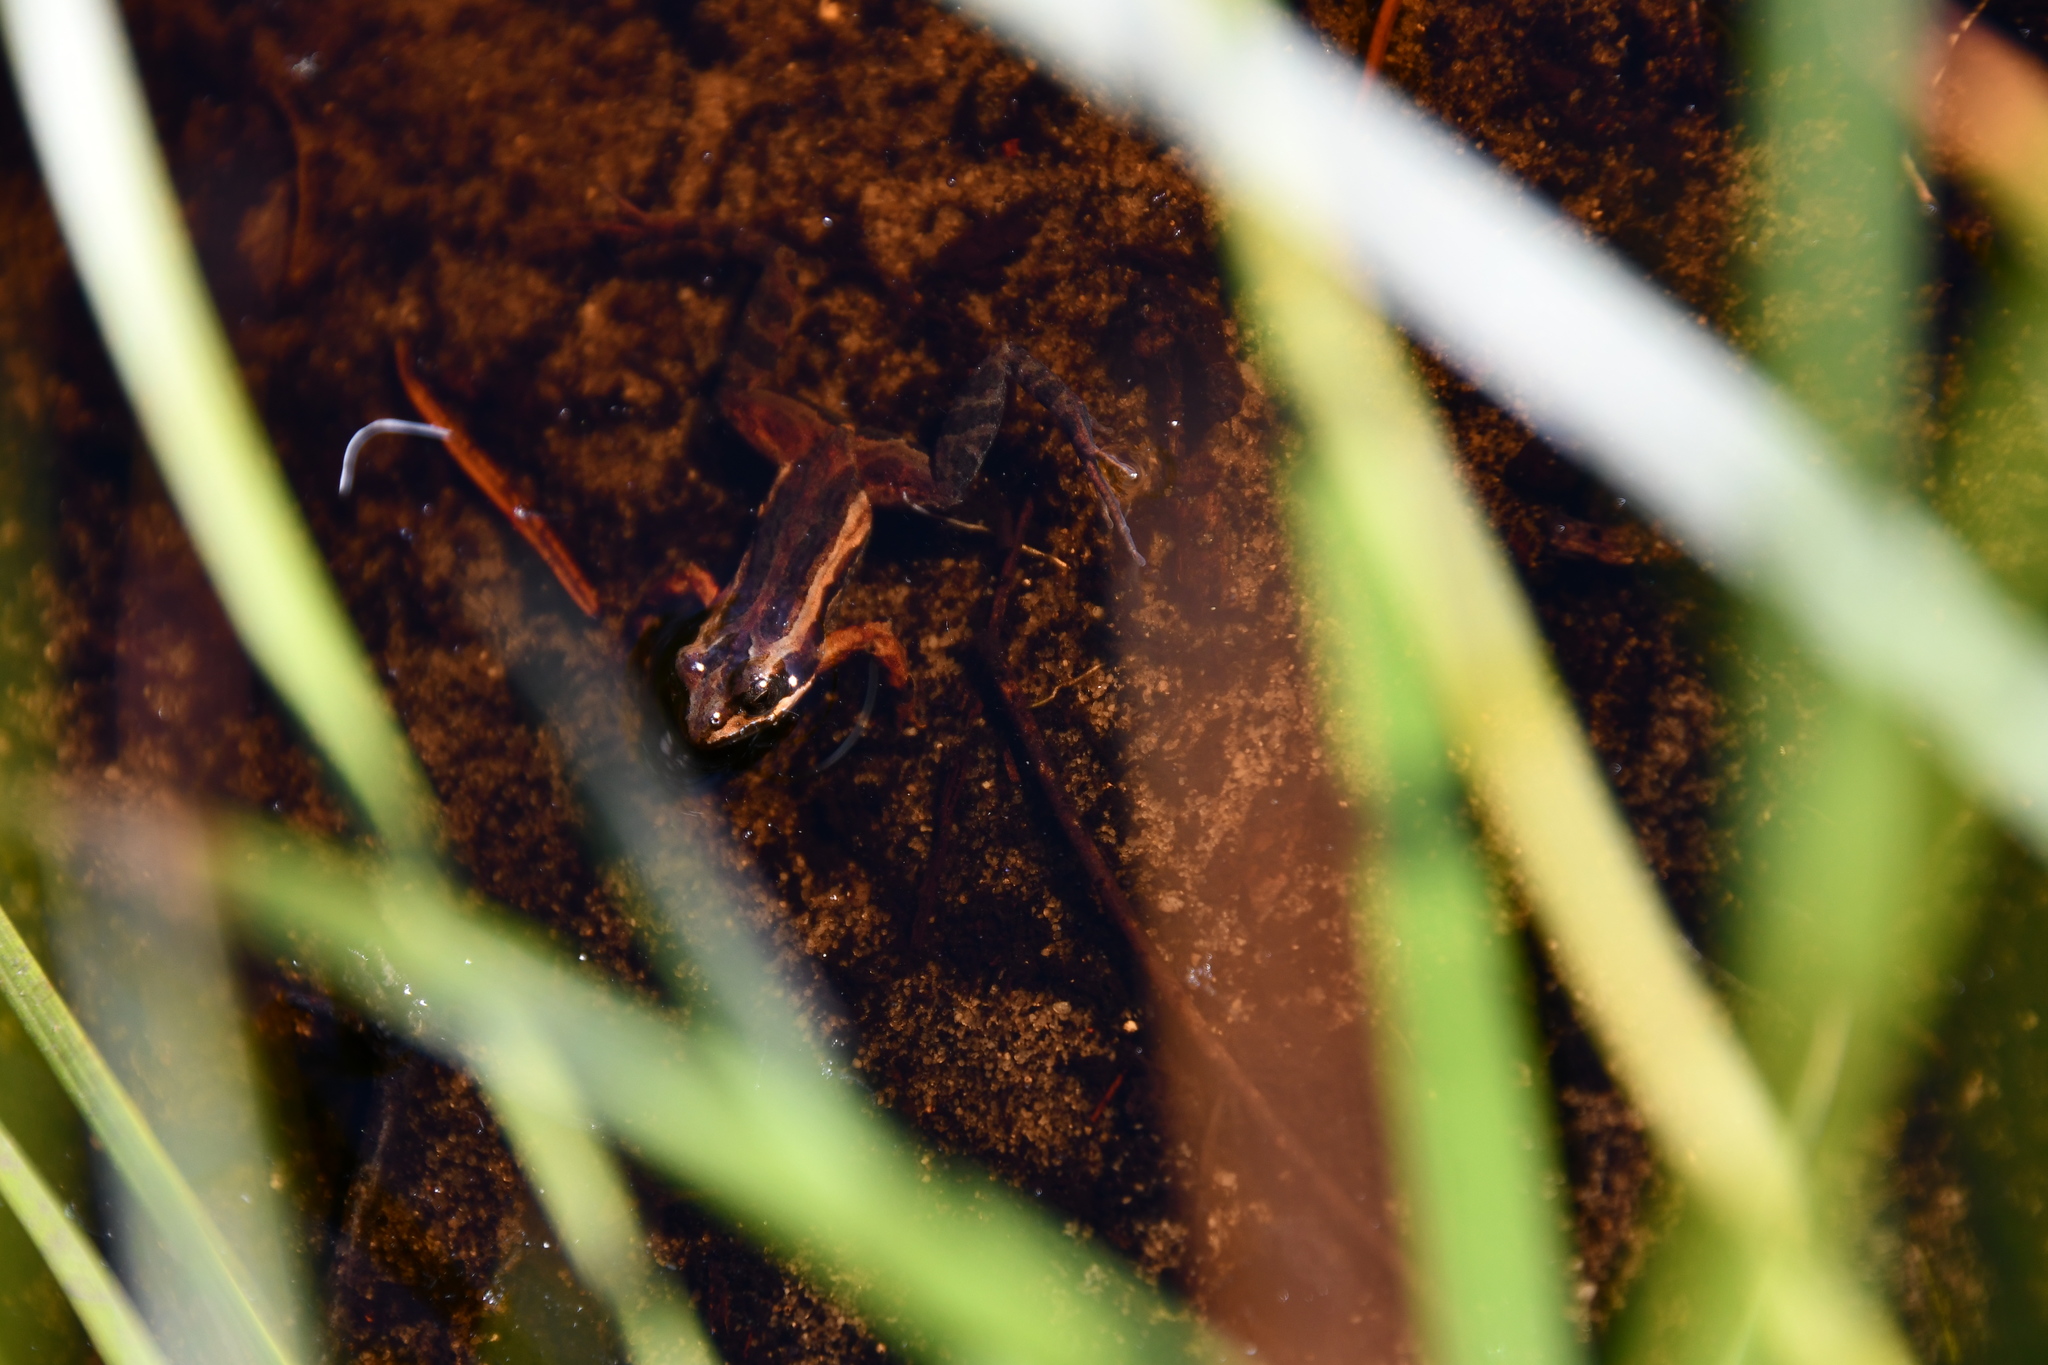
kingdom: Animalia
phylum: Chordata
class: Amphibia
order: Anura
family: Myobatrachidae
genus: Crinia
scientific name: Crinia tinnula
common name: Tinkling froglet
